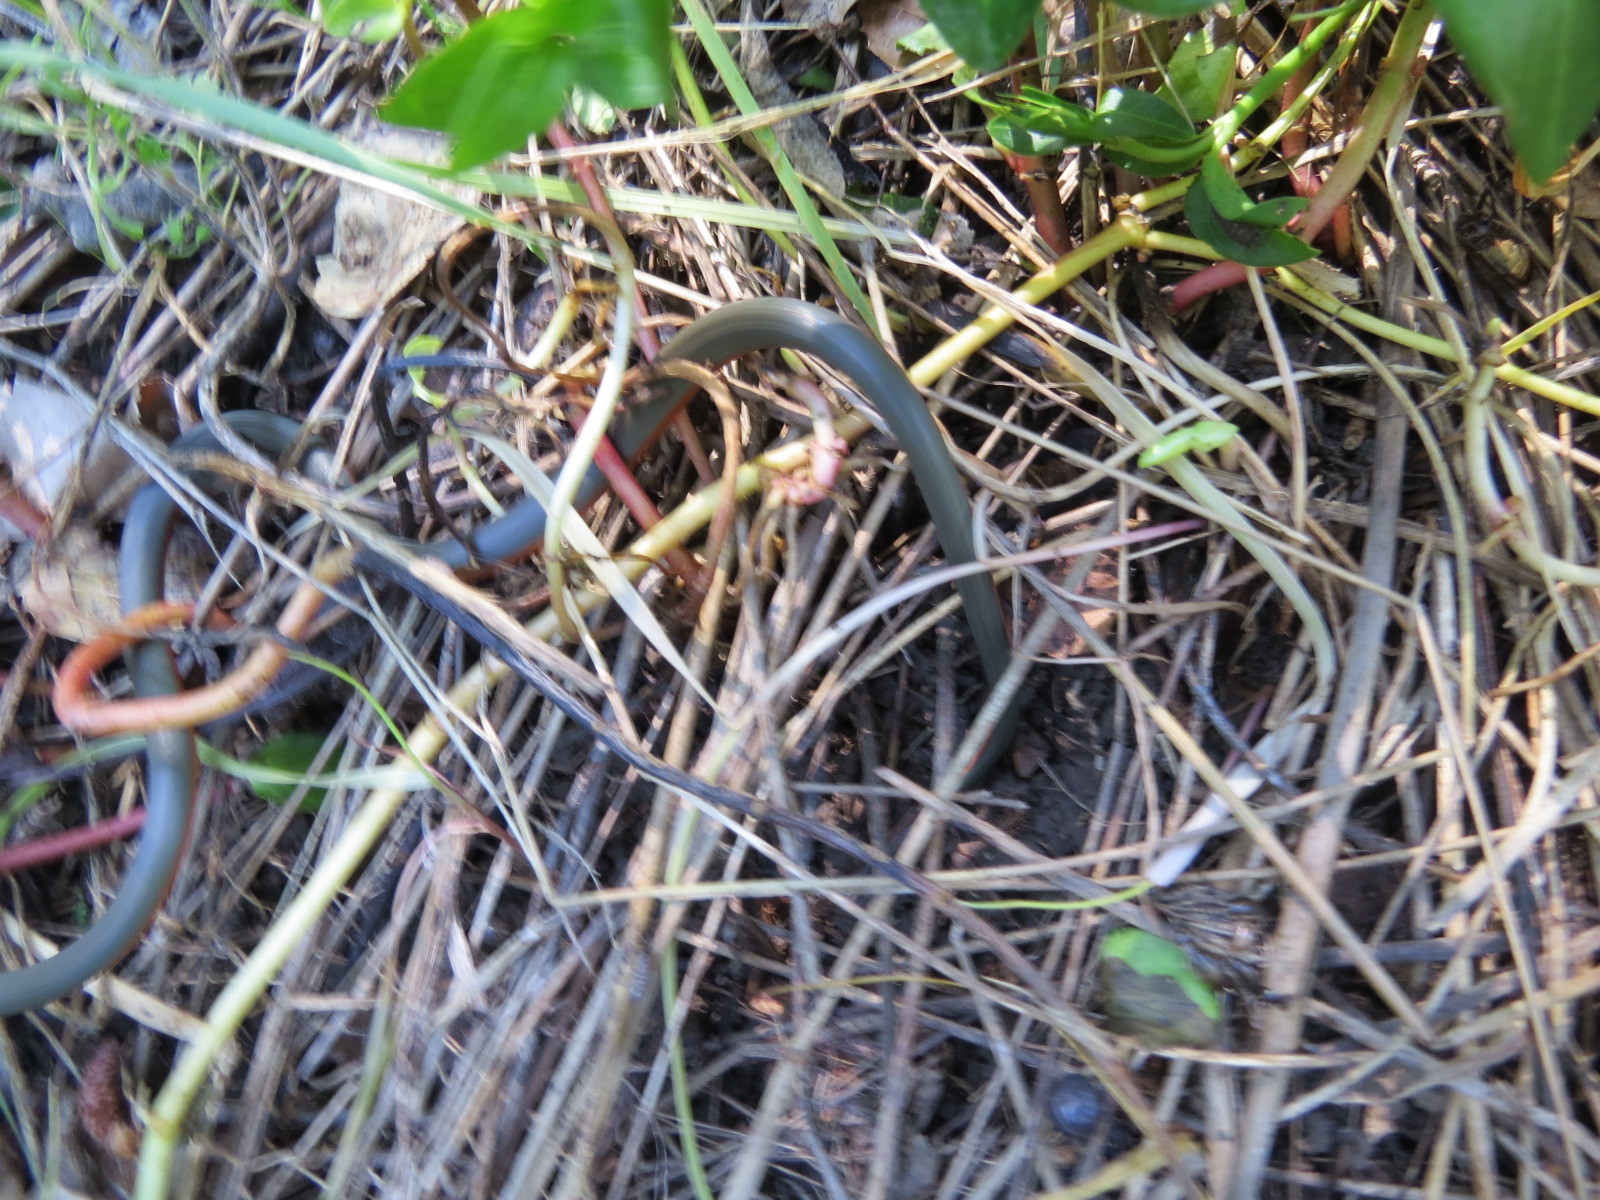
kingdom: Animalia
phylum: Chordata
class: Squamata
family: Colubridae
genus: Diadophis
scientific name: Diadophis punctatus
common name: Ringneck snake
